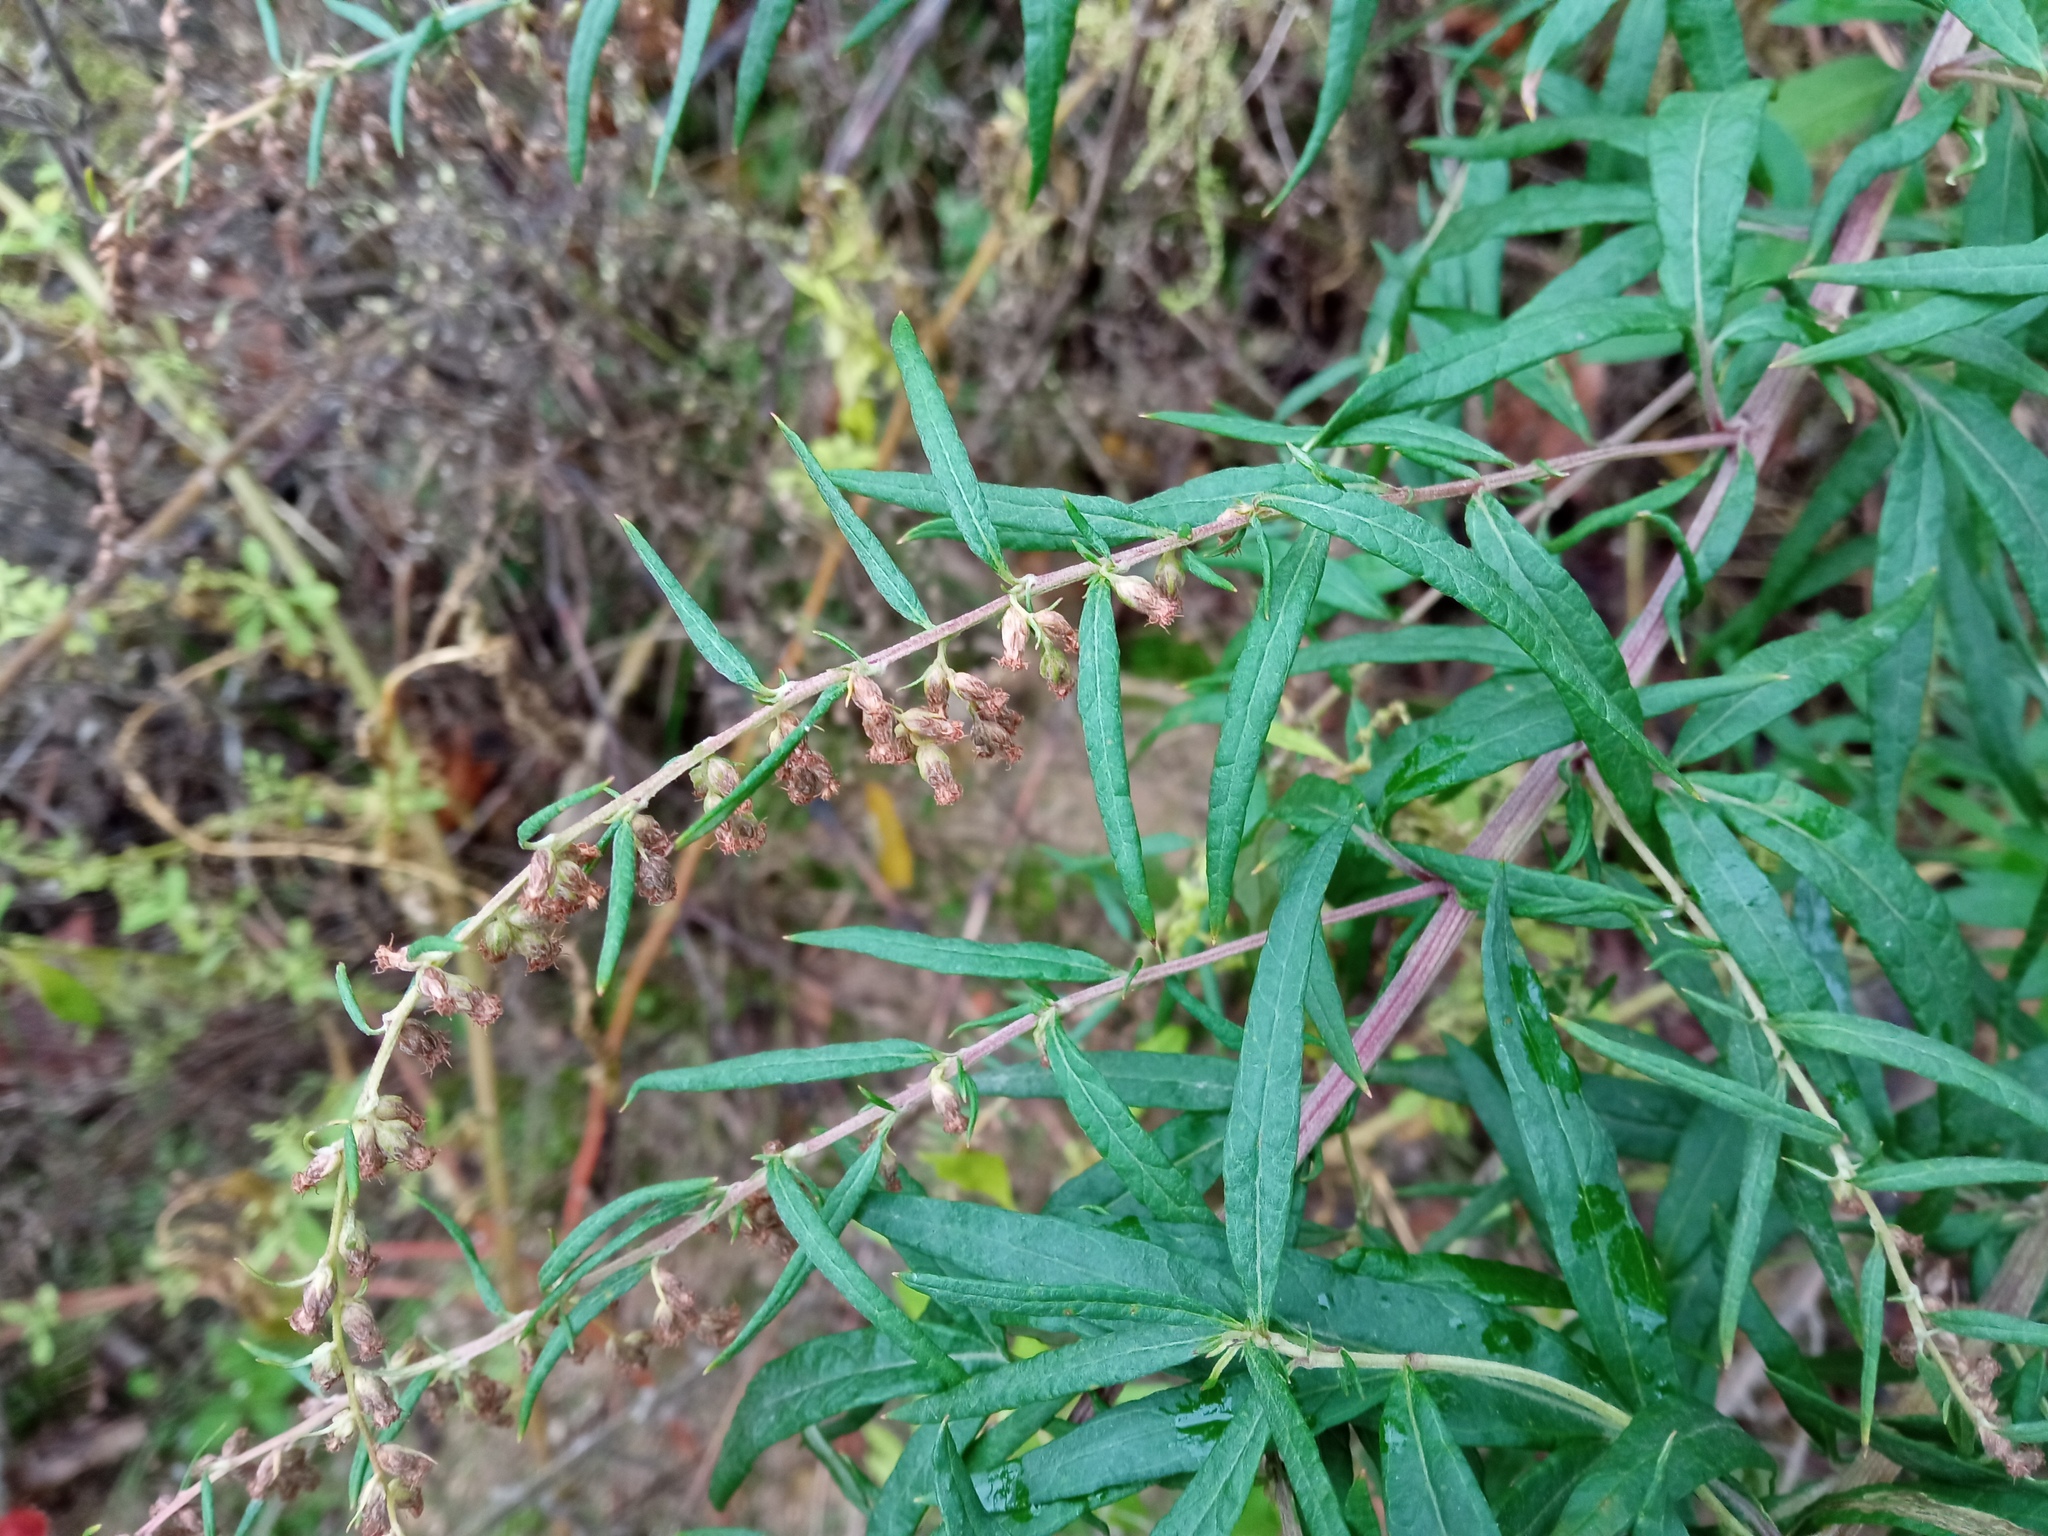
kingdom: Plantae
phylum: Tracheophyta
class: Magnoliopsida
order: Asterales
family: Asteraceae
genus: Artemisia
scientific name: Artemisia verlotiorum
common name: Chinese mugwort
